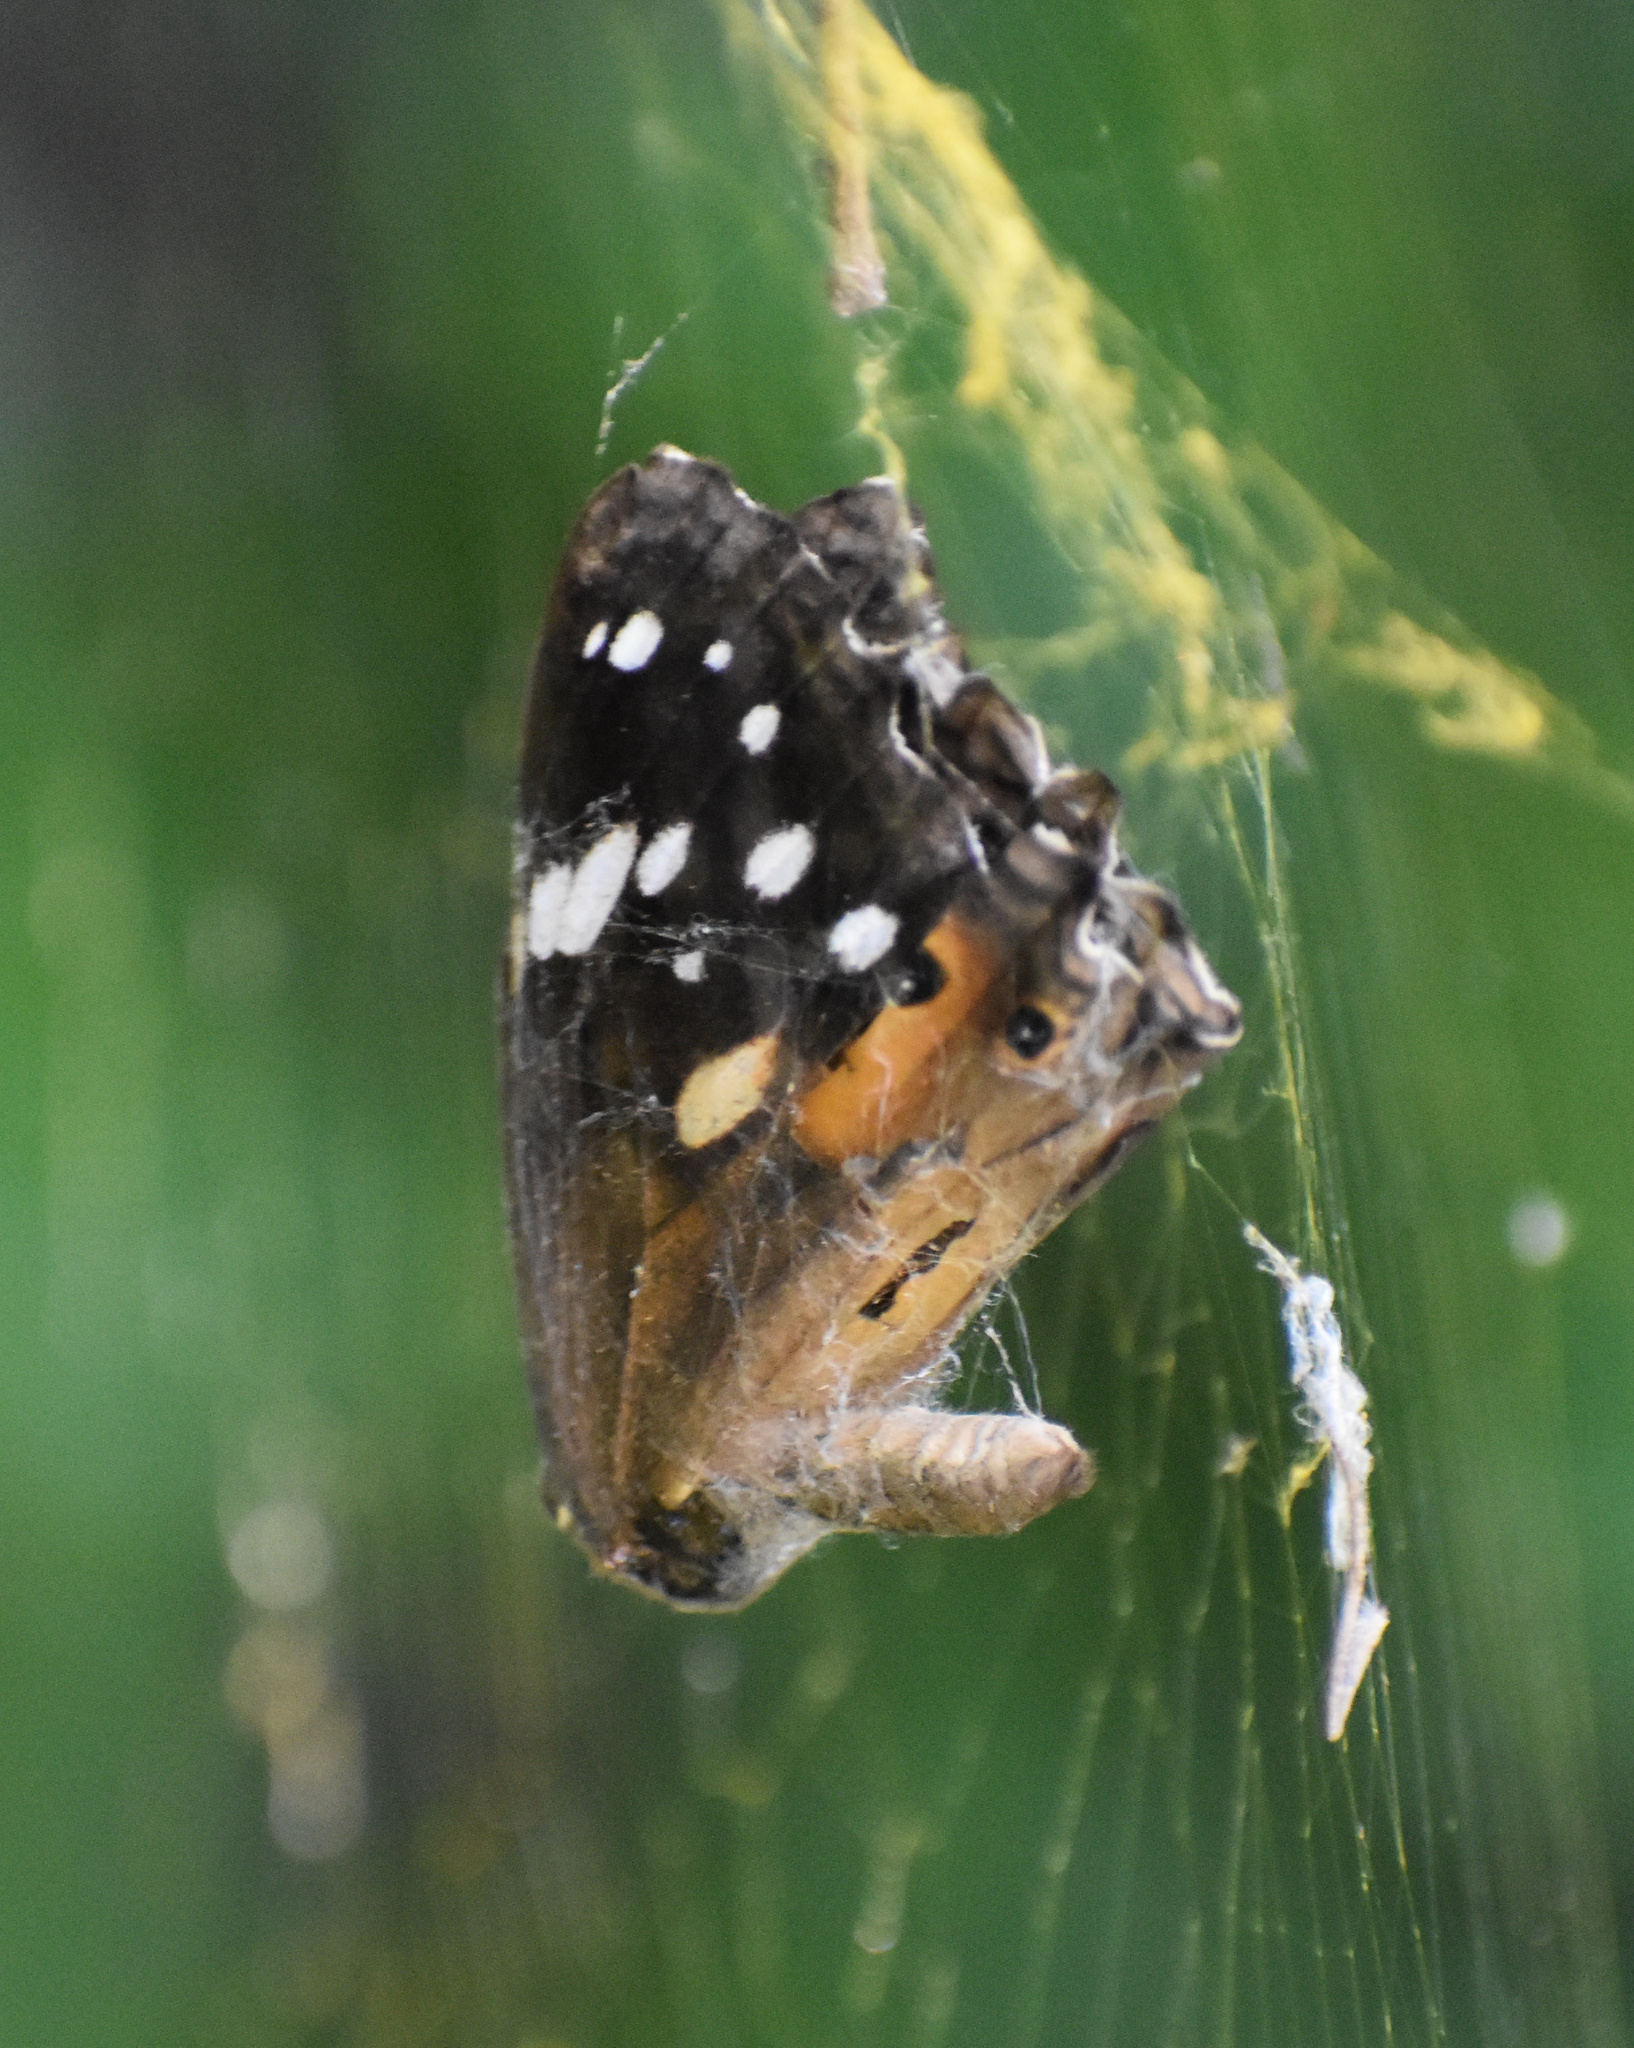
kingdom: Animalia
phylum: Arthropoda
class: Insecta
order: Lepidoptera
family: Nymphalidae
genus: Paralethe
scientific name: Paralethe dendrophilus
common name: Bush beauty
